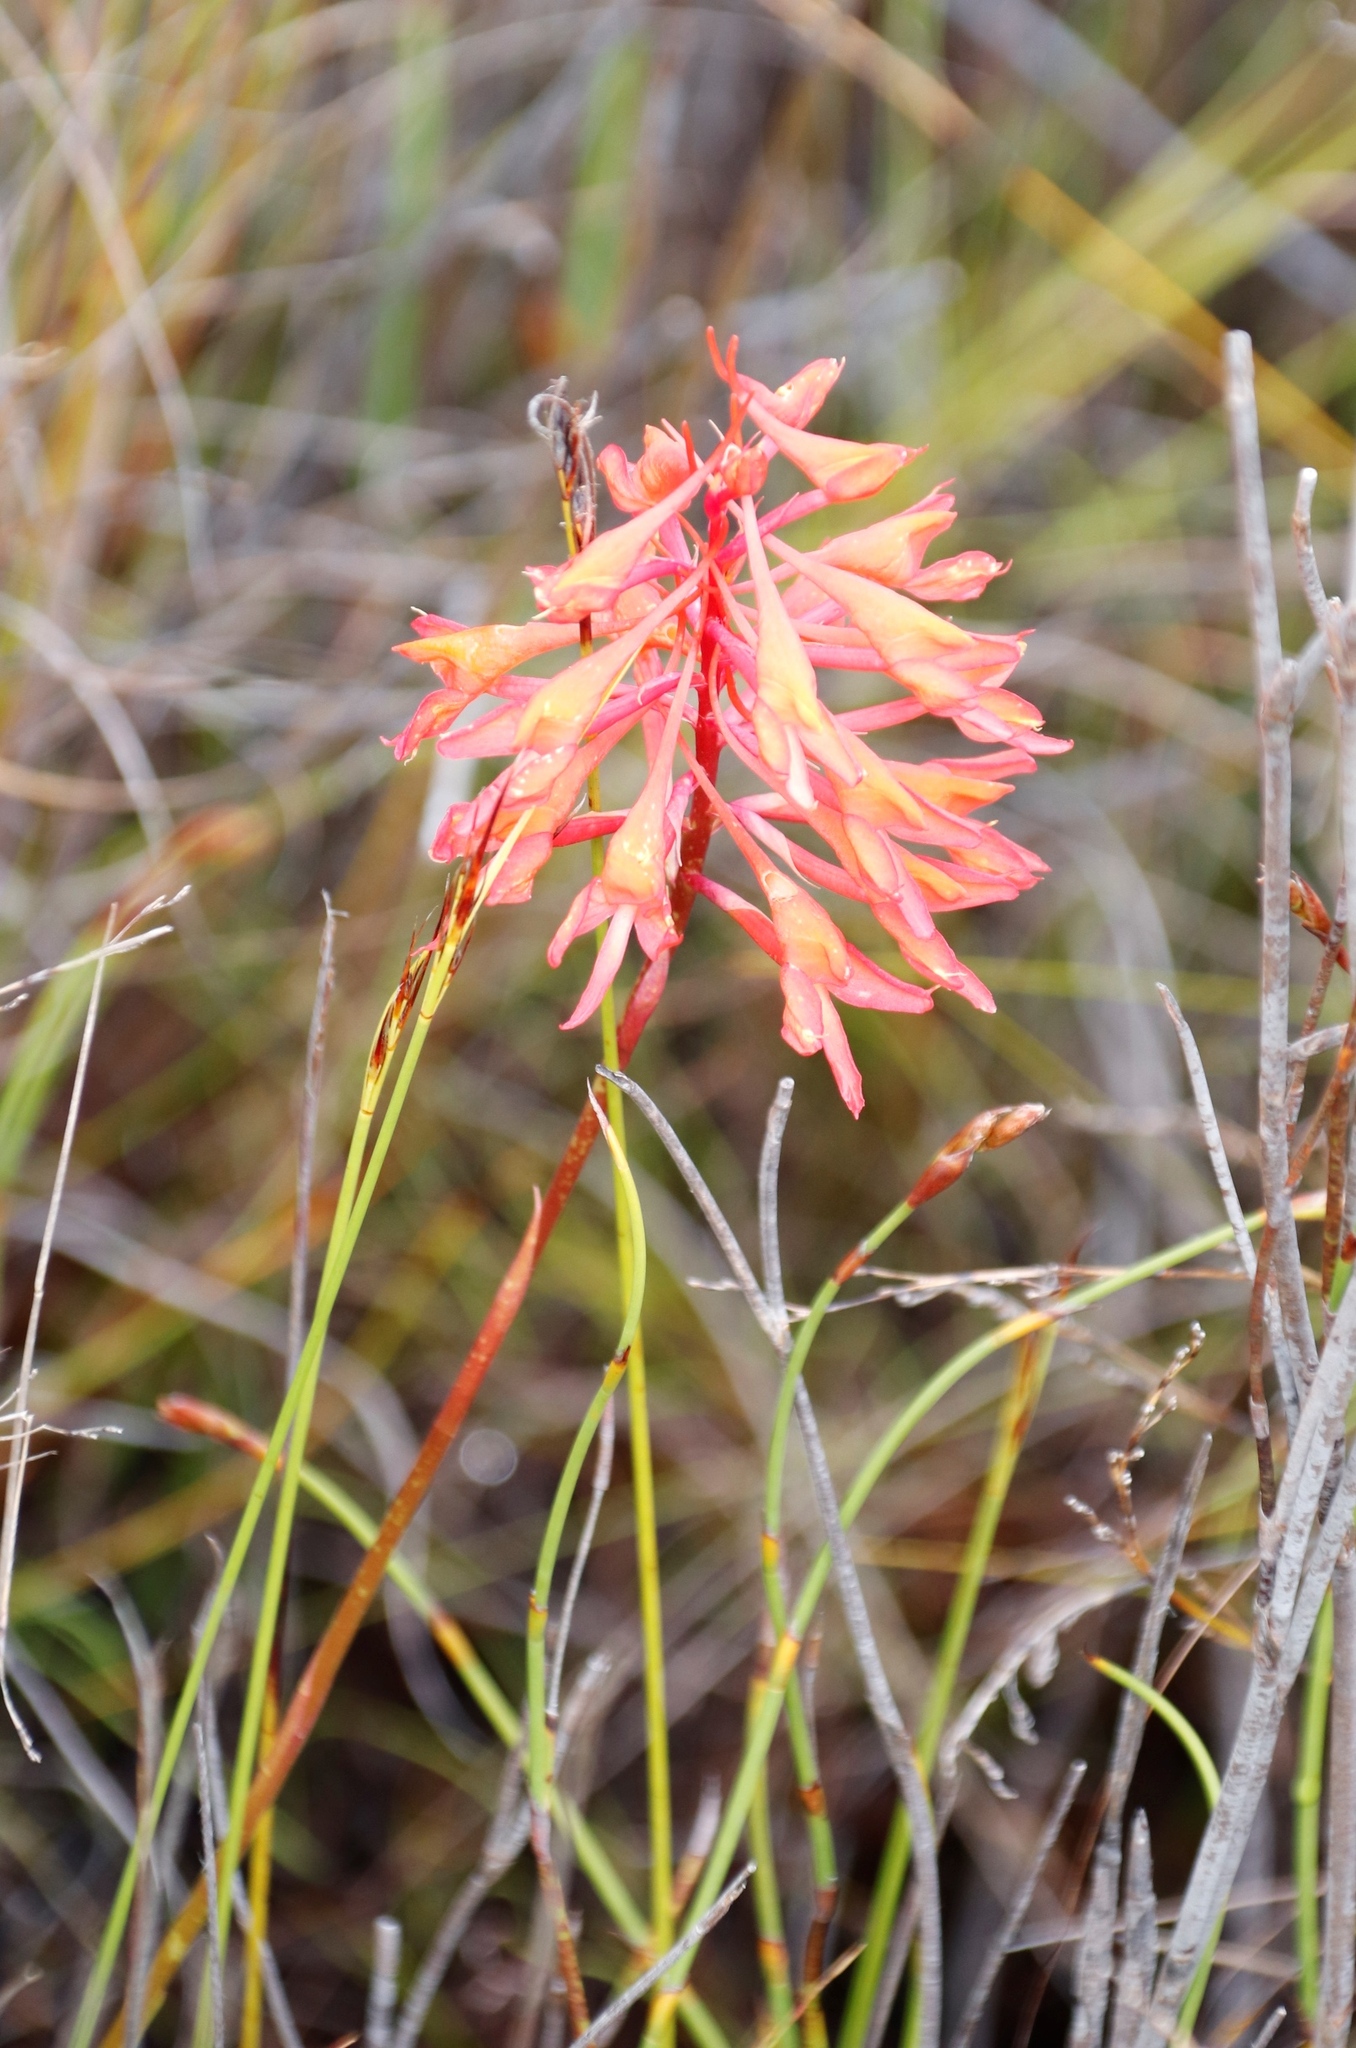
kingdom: Plantae
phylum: Tracheophyta
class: Liliopsida
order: Asparagales
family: Orchidaceae
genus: Disa
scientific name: Disa ferruginea
